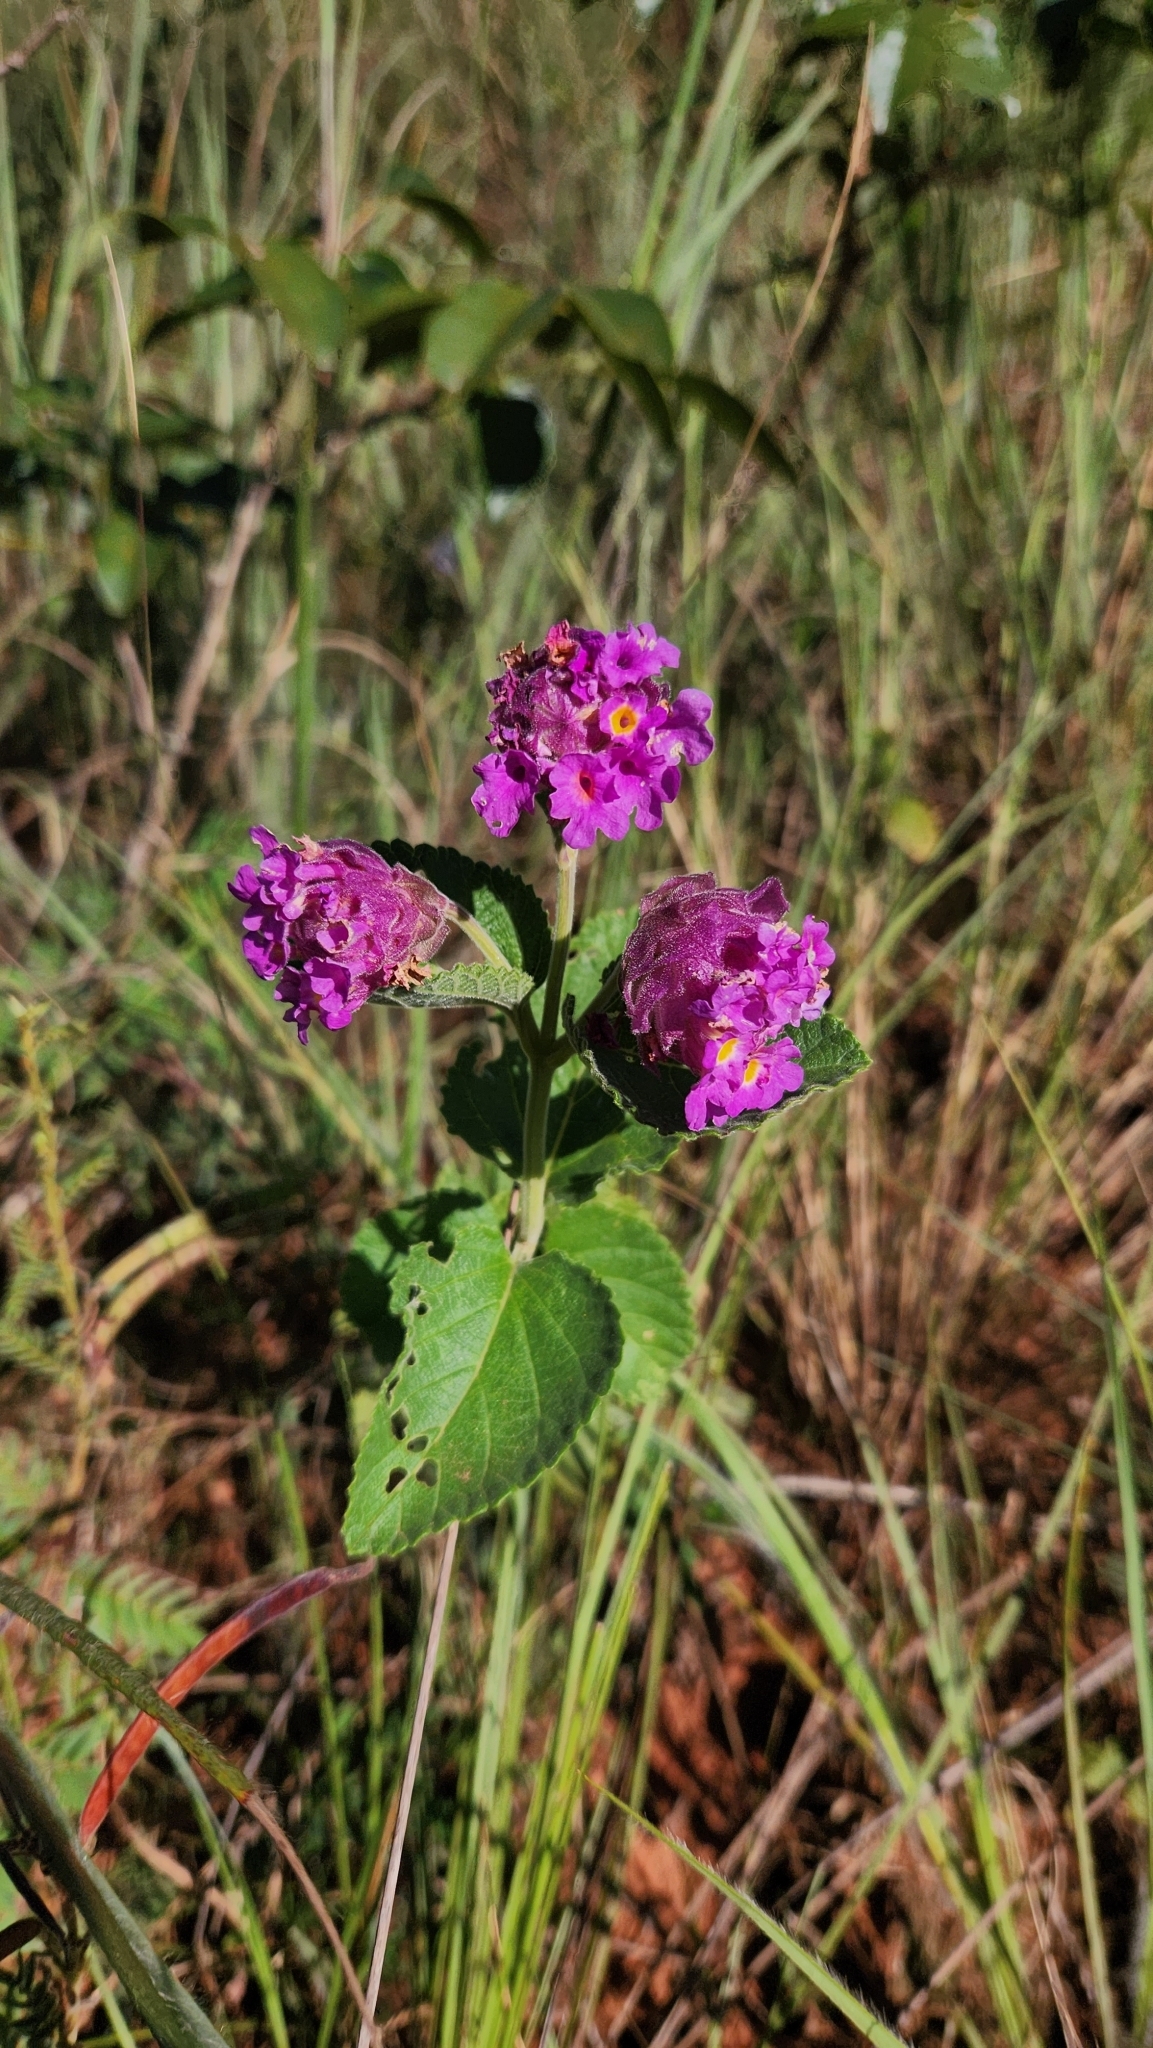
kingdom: Plantae
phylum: Tracheophyta
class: Magnoliopsida
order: Lamiales
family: Verbenaceae
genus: Lippia
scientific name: Lippia lupulina
